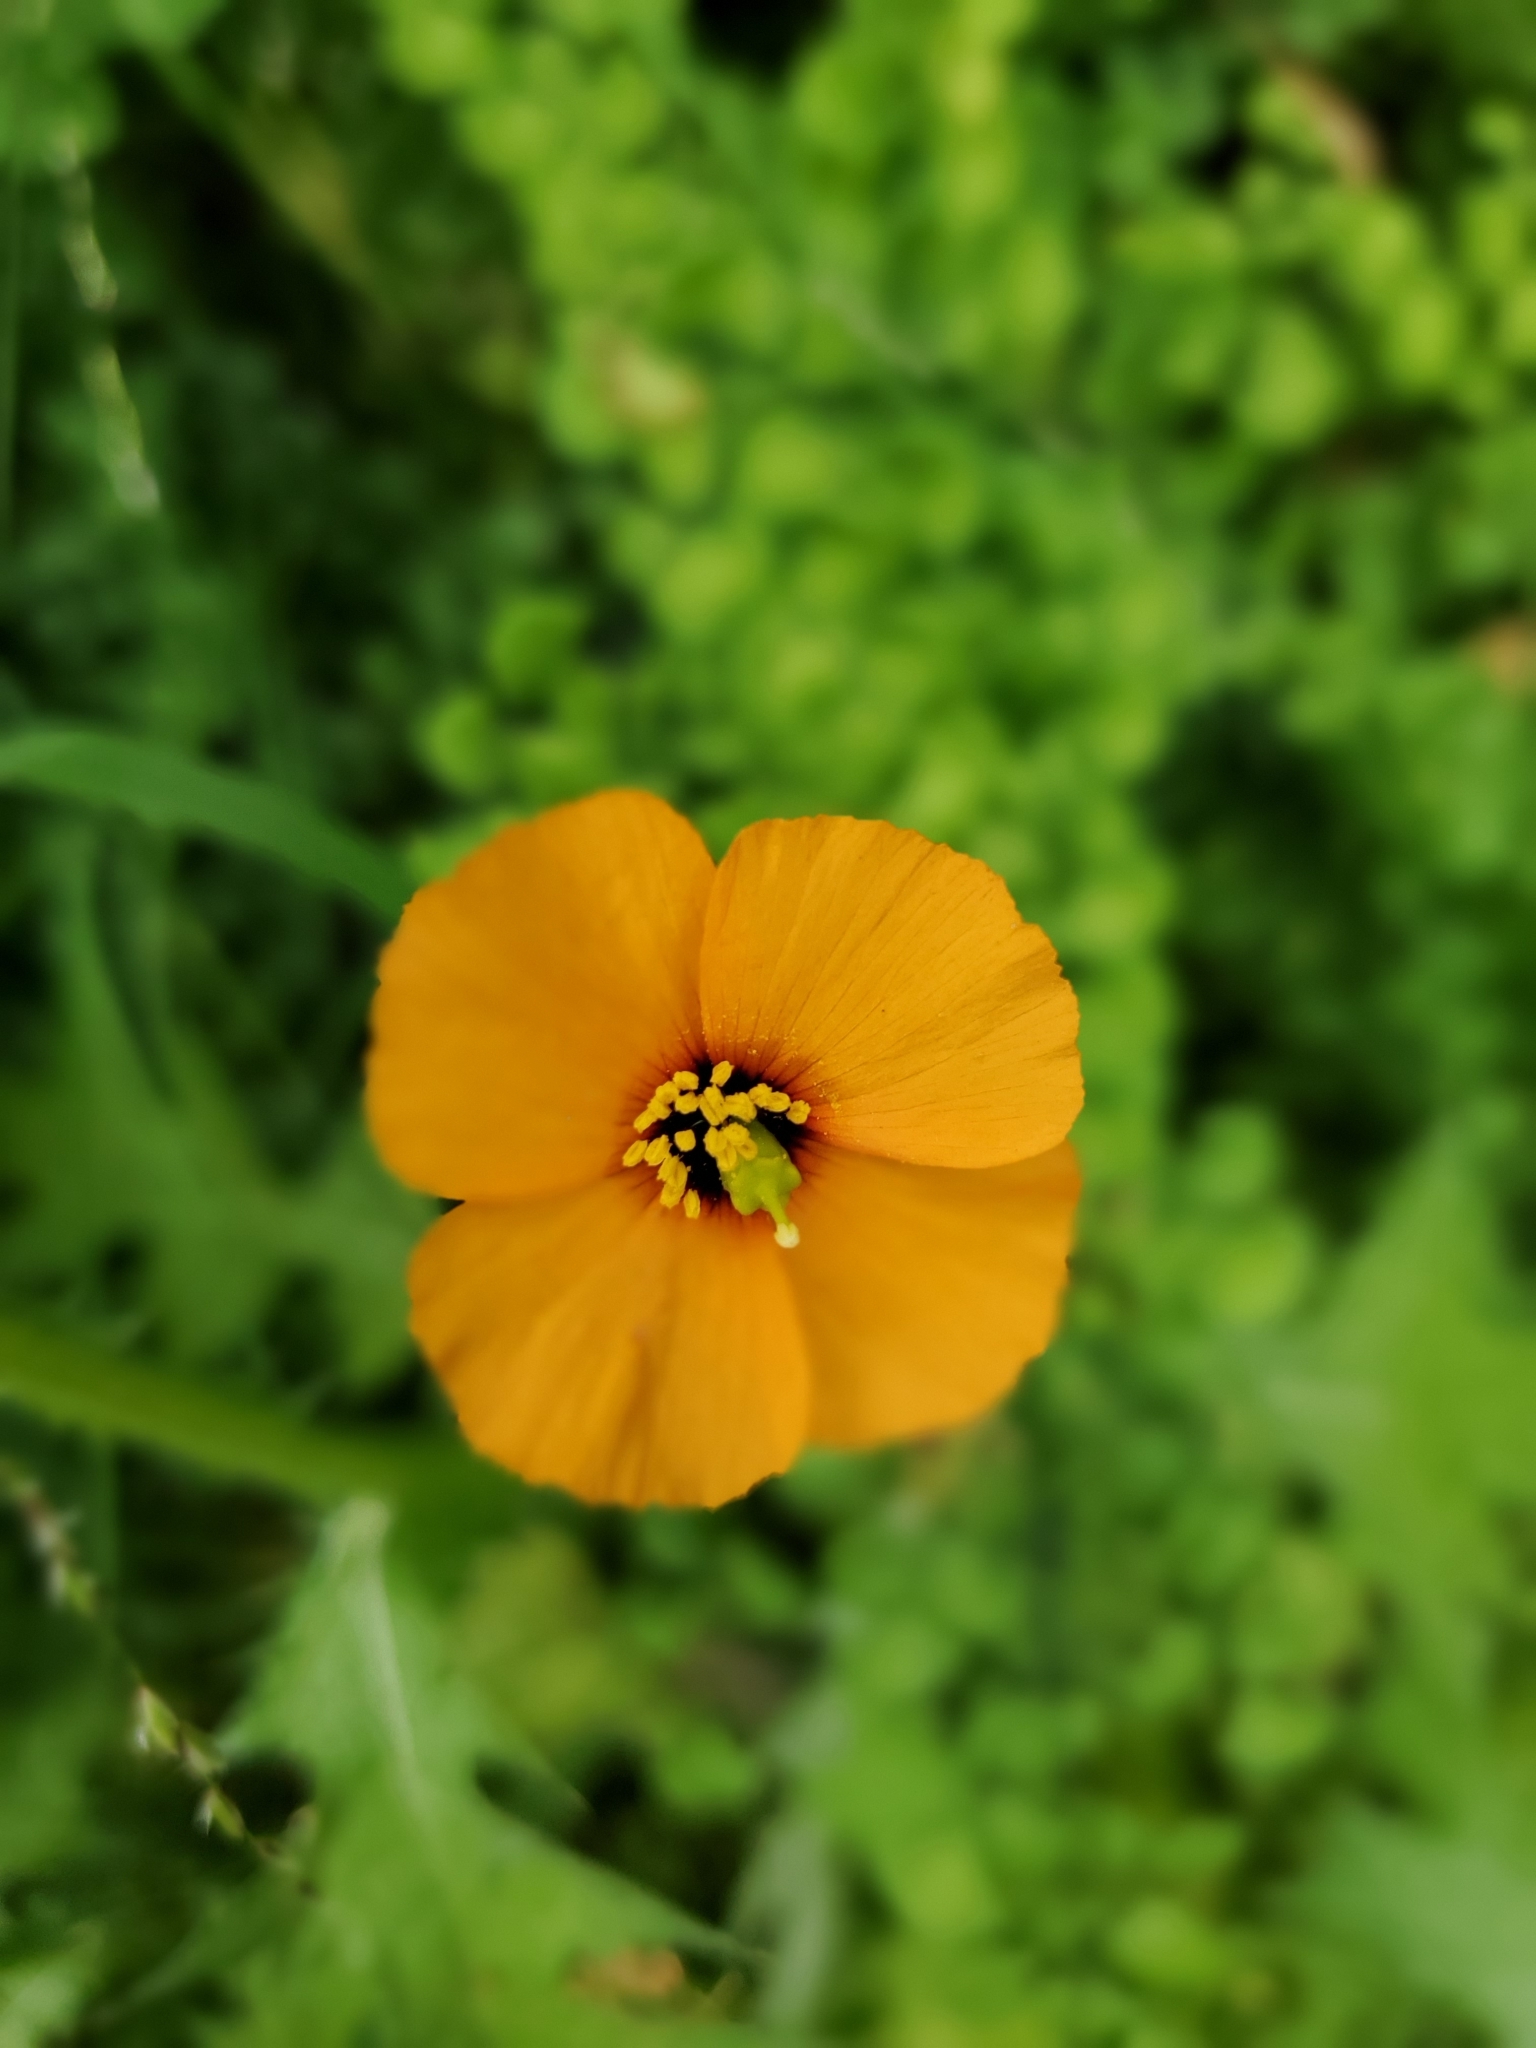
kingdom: Plantae
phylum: Tracheophyta
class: Magnoliopsida
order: Ranunculales
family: Papaveraceae
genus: Stylomecon
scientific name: Stylomecon heterophylla
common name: Flaming-poppy
